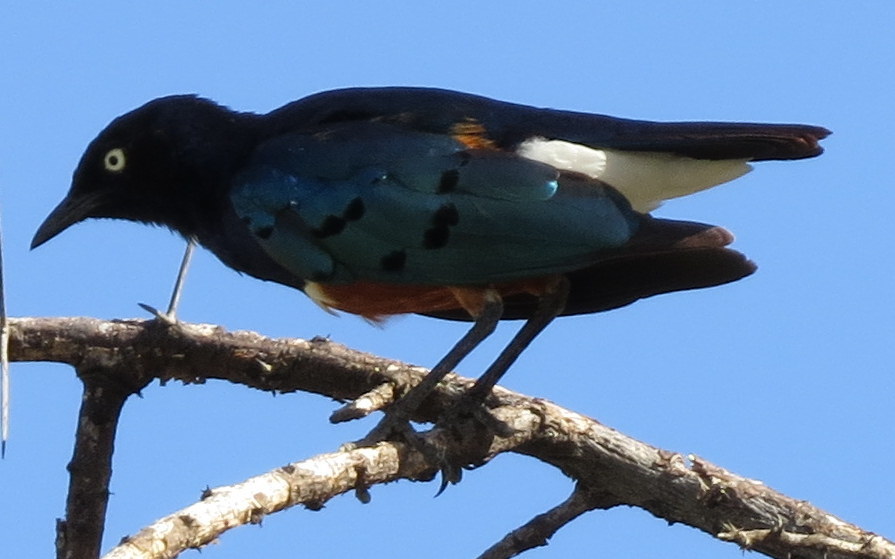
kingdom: Animalia
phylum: Chordata
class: Aves
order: Passeriformes
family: Sturnidae
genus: Lamprotornis
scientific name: Lamprotornis superbus
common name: Superb starling
